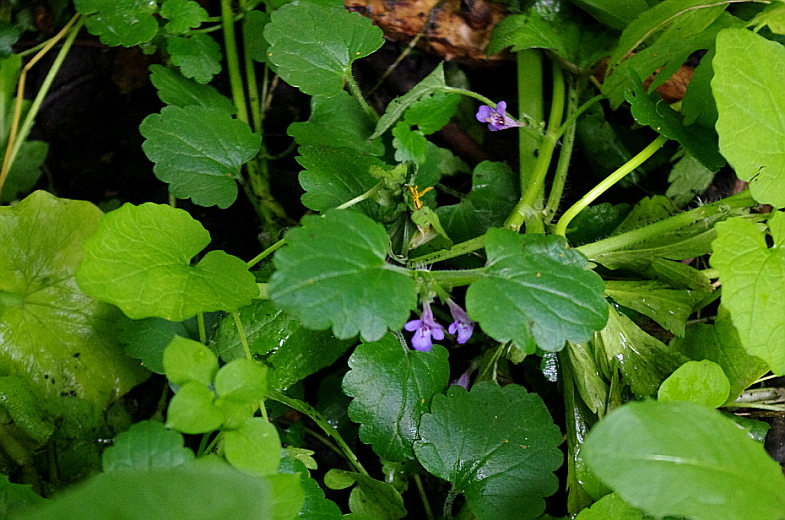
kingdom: Plantae
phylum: Tracheophyta
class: Magnoliopsida
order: Lamiales
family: Lamiaceae
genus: Glechoma
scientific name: Glechoma hederacea
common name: Ground ivy
